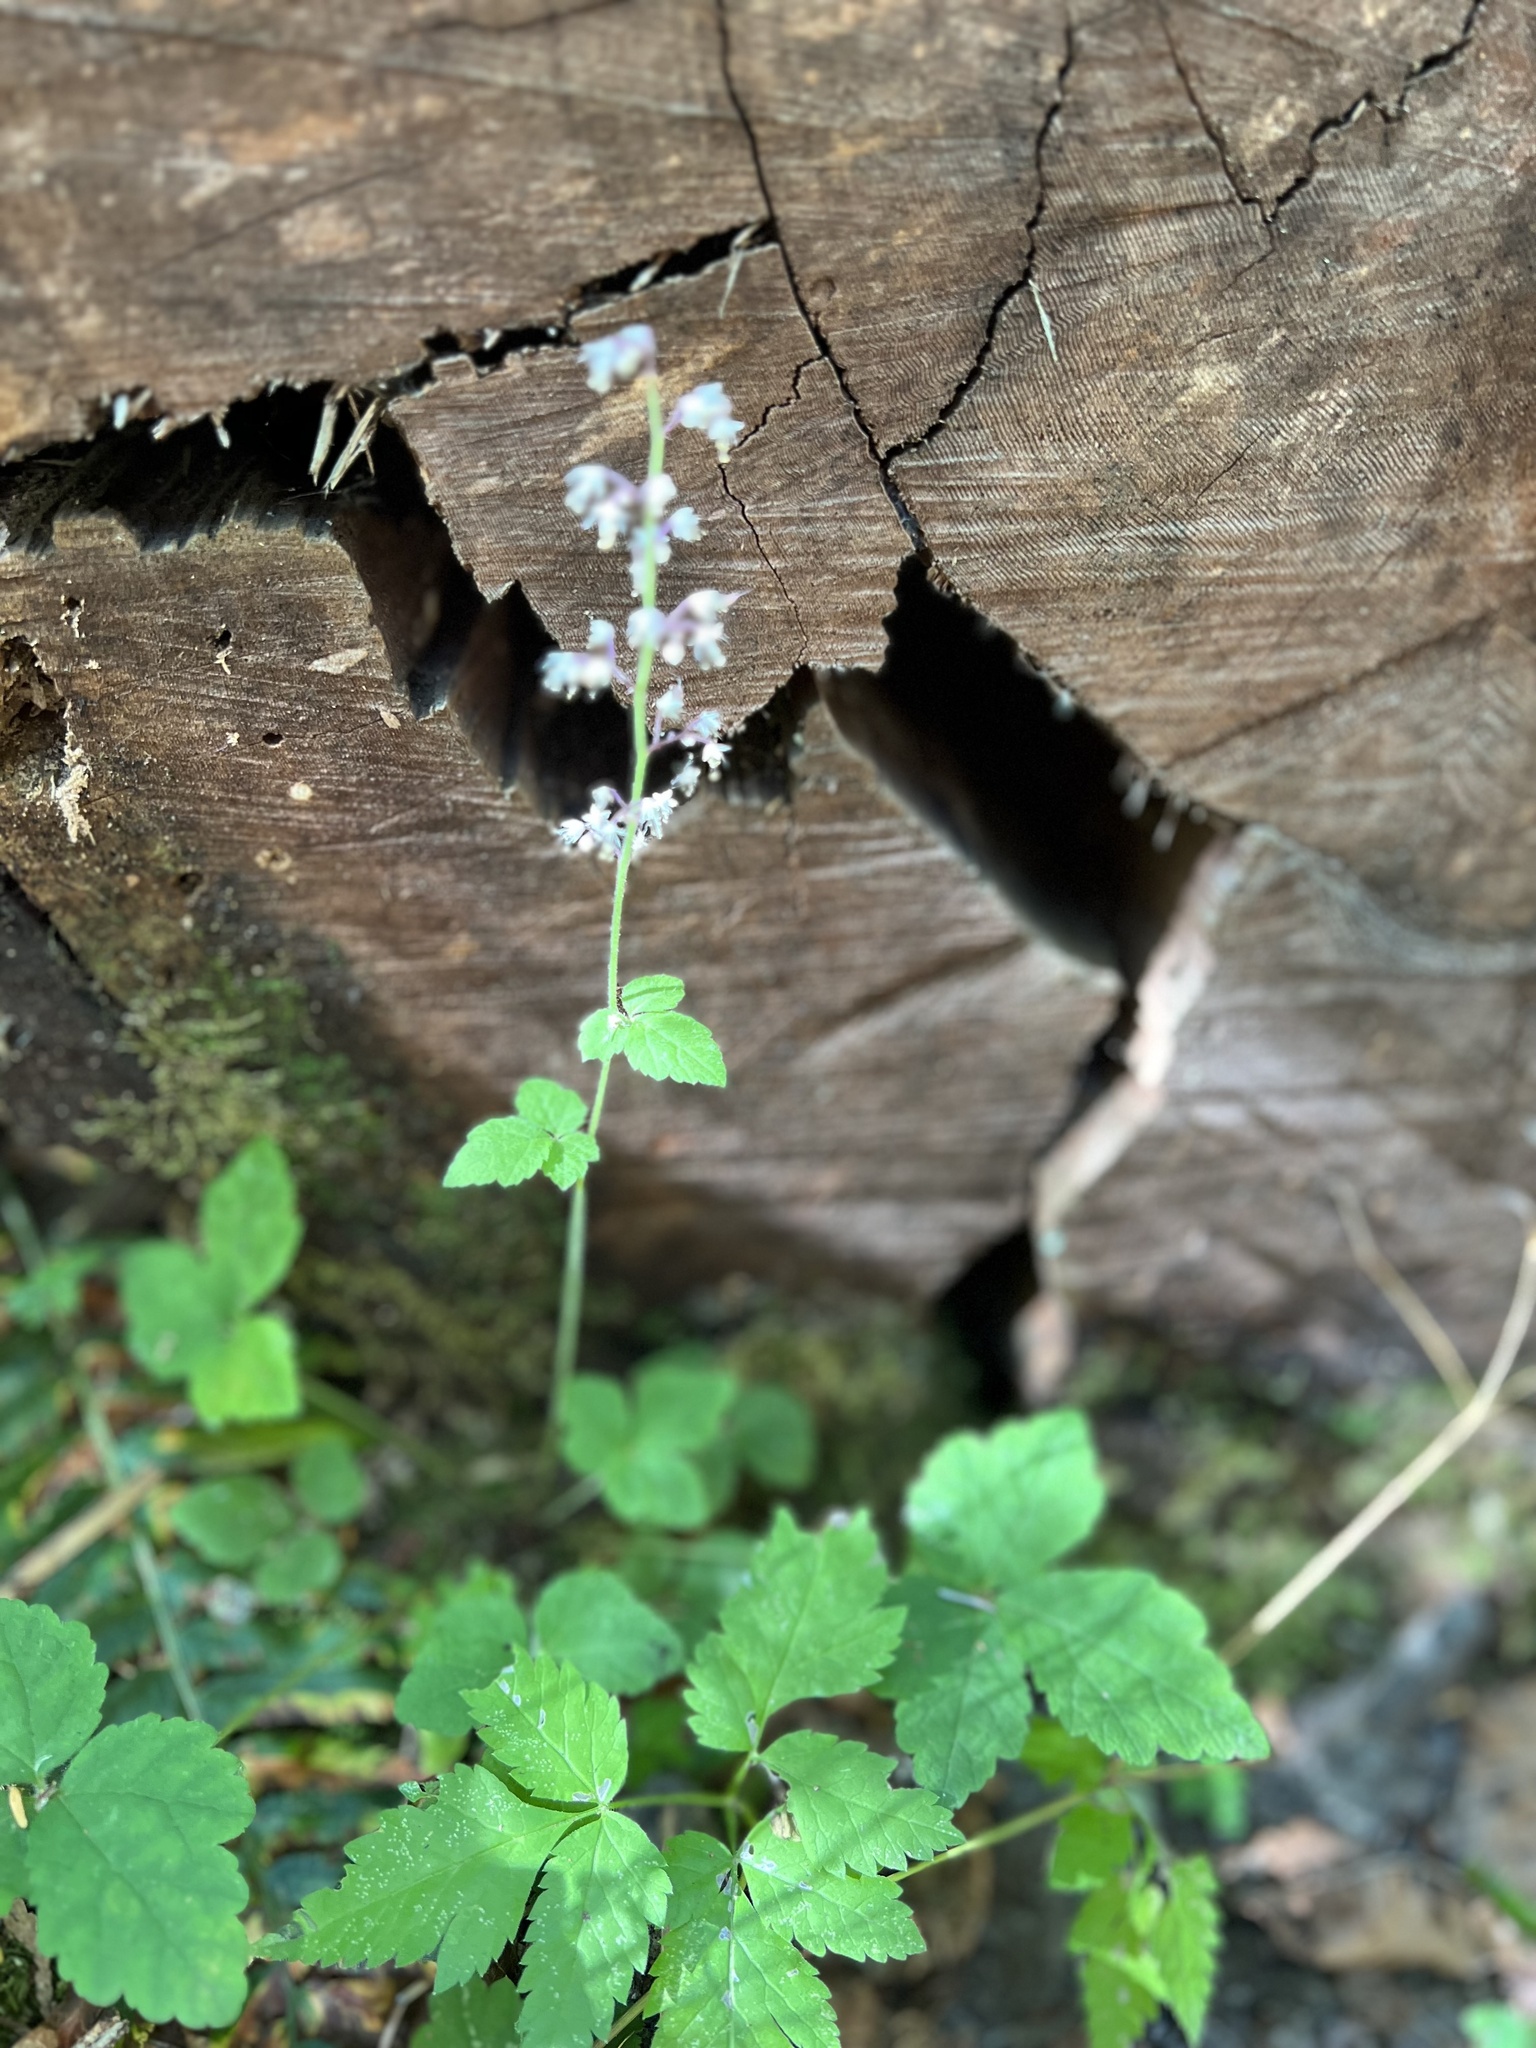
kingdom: Plantae
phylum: Tracheophyta
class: Magnoliopsida
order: Saxifragales
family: Saxifragaceae
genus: Tiarella
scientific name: Tiarella trifoliata
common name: Sugar-scoop
